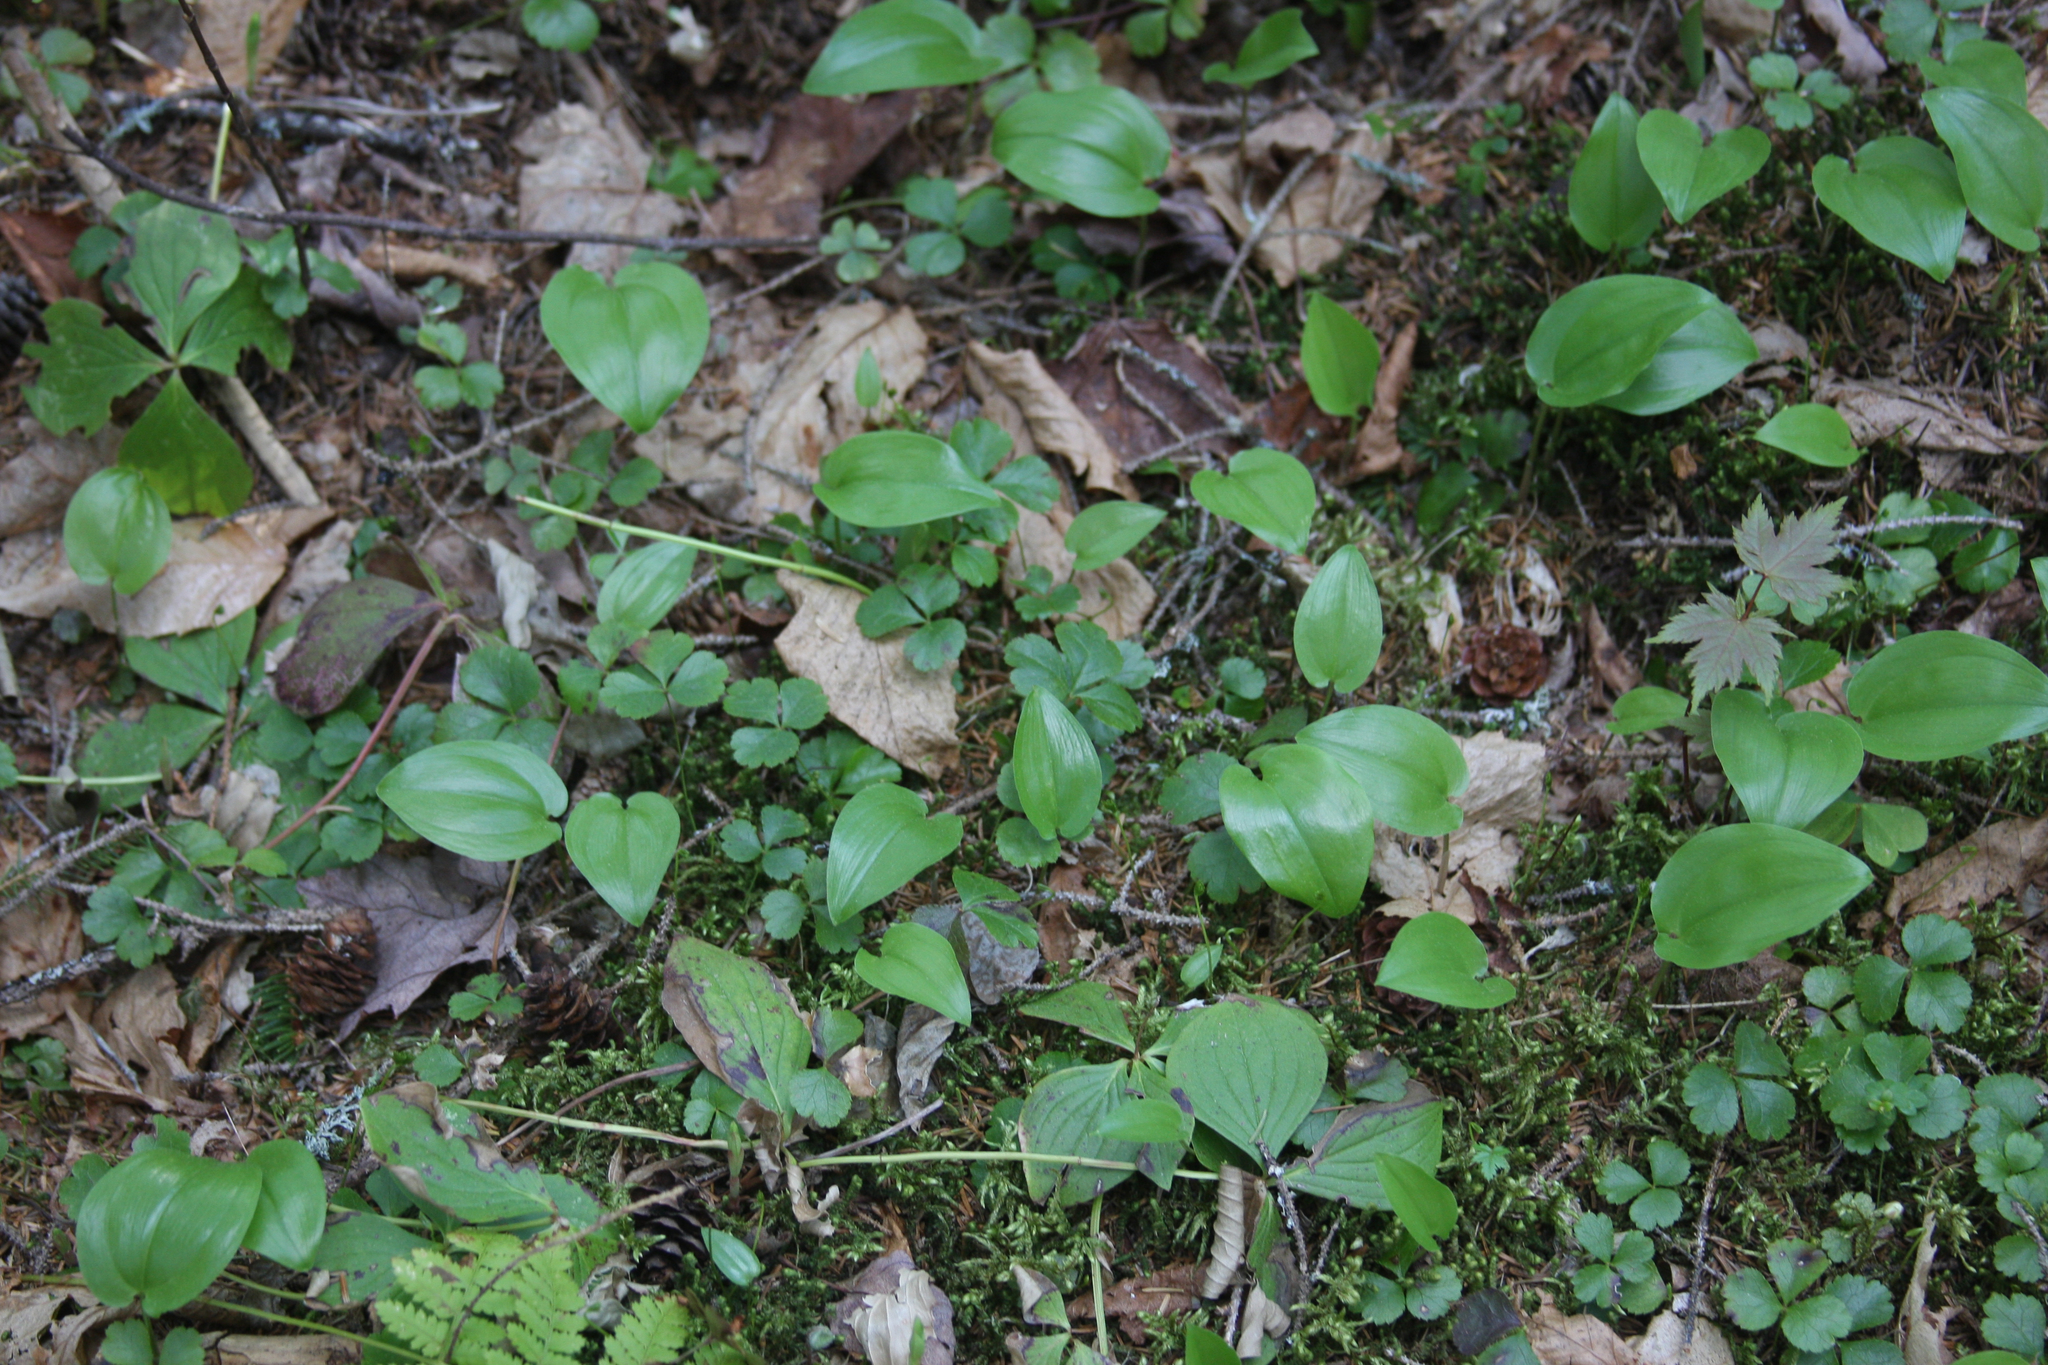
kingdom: Plantae
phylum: Tracheophyta
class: Liliopsida
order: Asparagales
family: Asparagaceae
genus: Maianthemum
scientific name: Maianthemum canadense
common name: False lily-of-the-valley
